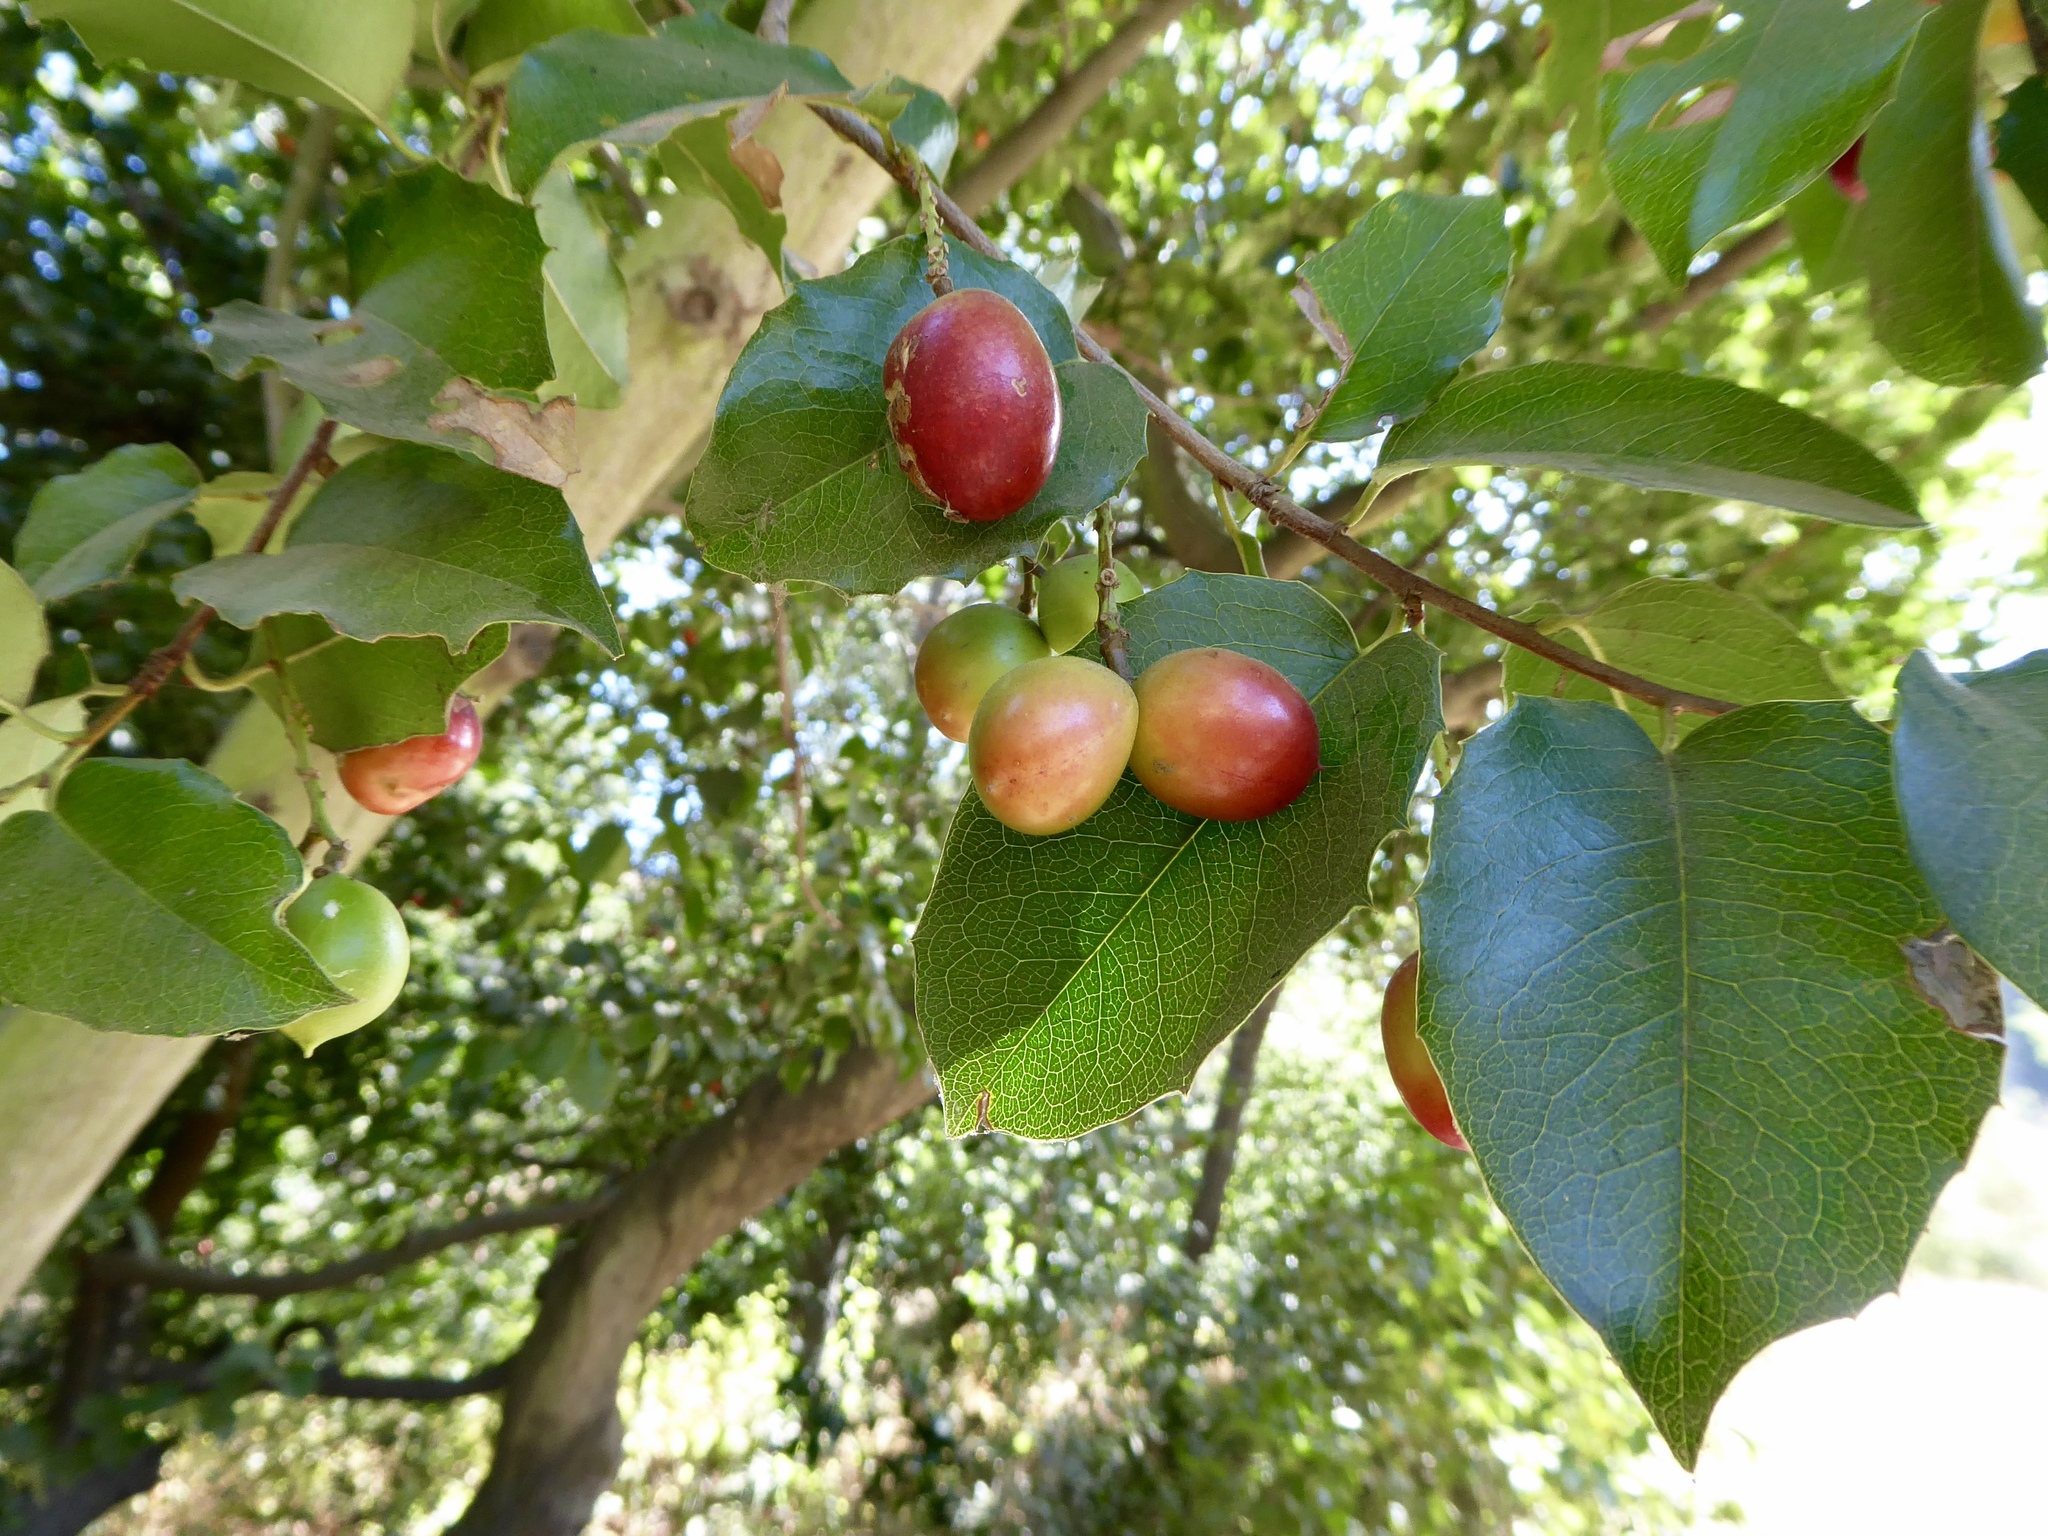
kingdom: Plantae
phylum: Tracheophyta
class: Magnoliopsida
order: Rosales
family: Rosaceae
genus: Prunus
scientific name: Prunus ilicifolia
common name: Hollyleaf cherry
